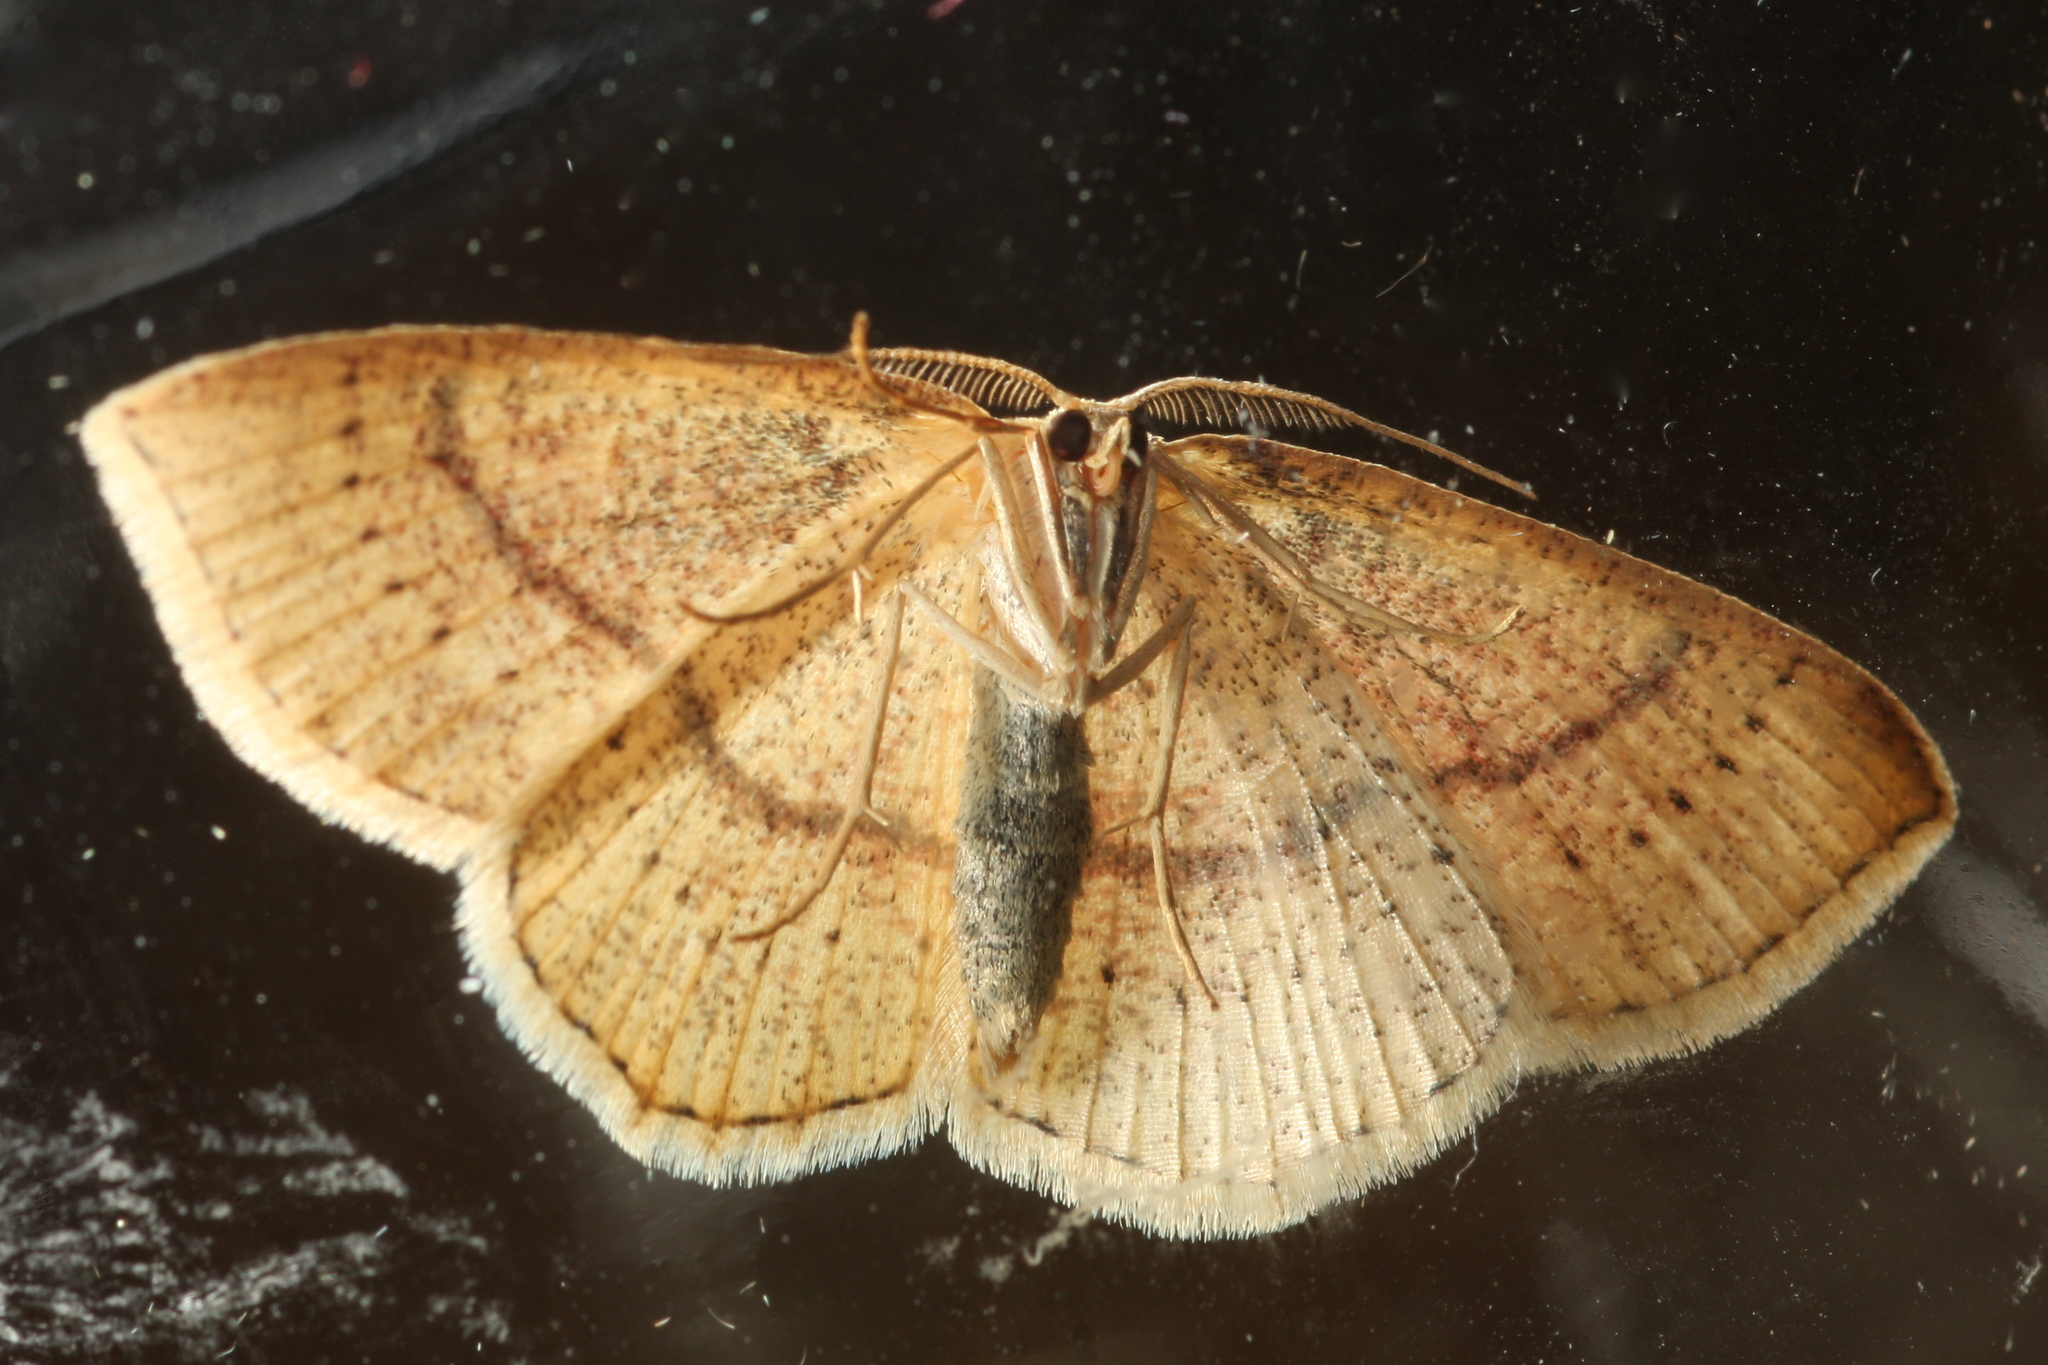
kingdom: Animalia
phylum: Arthropoda
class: Insecta
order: Lepidoptera
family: Geometridae
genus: Cyclophora
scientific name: Cyclophora quercimontaria
